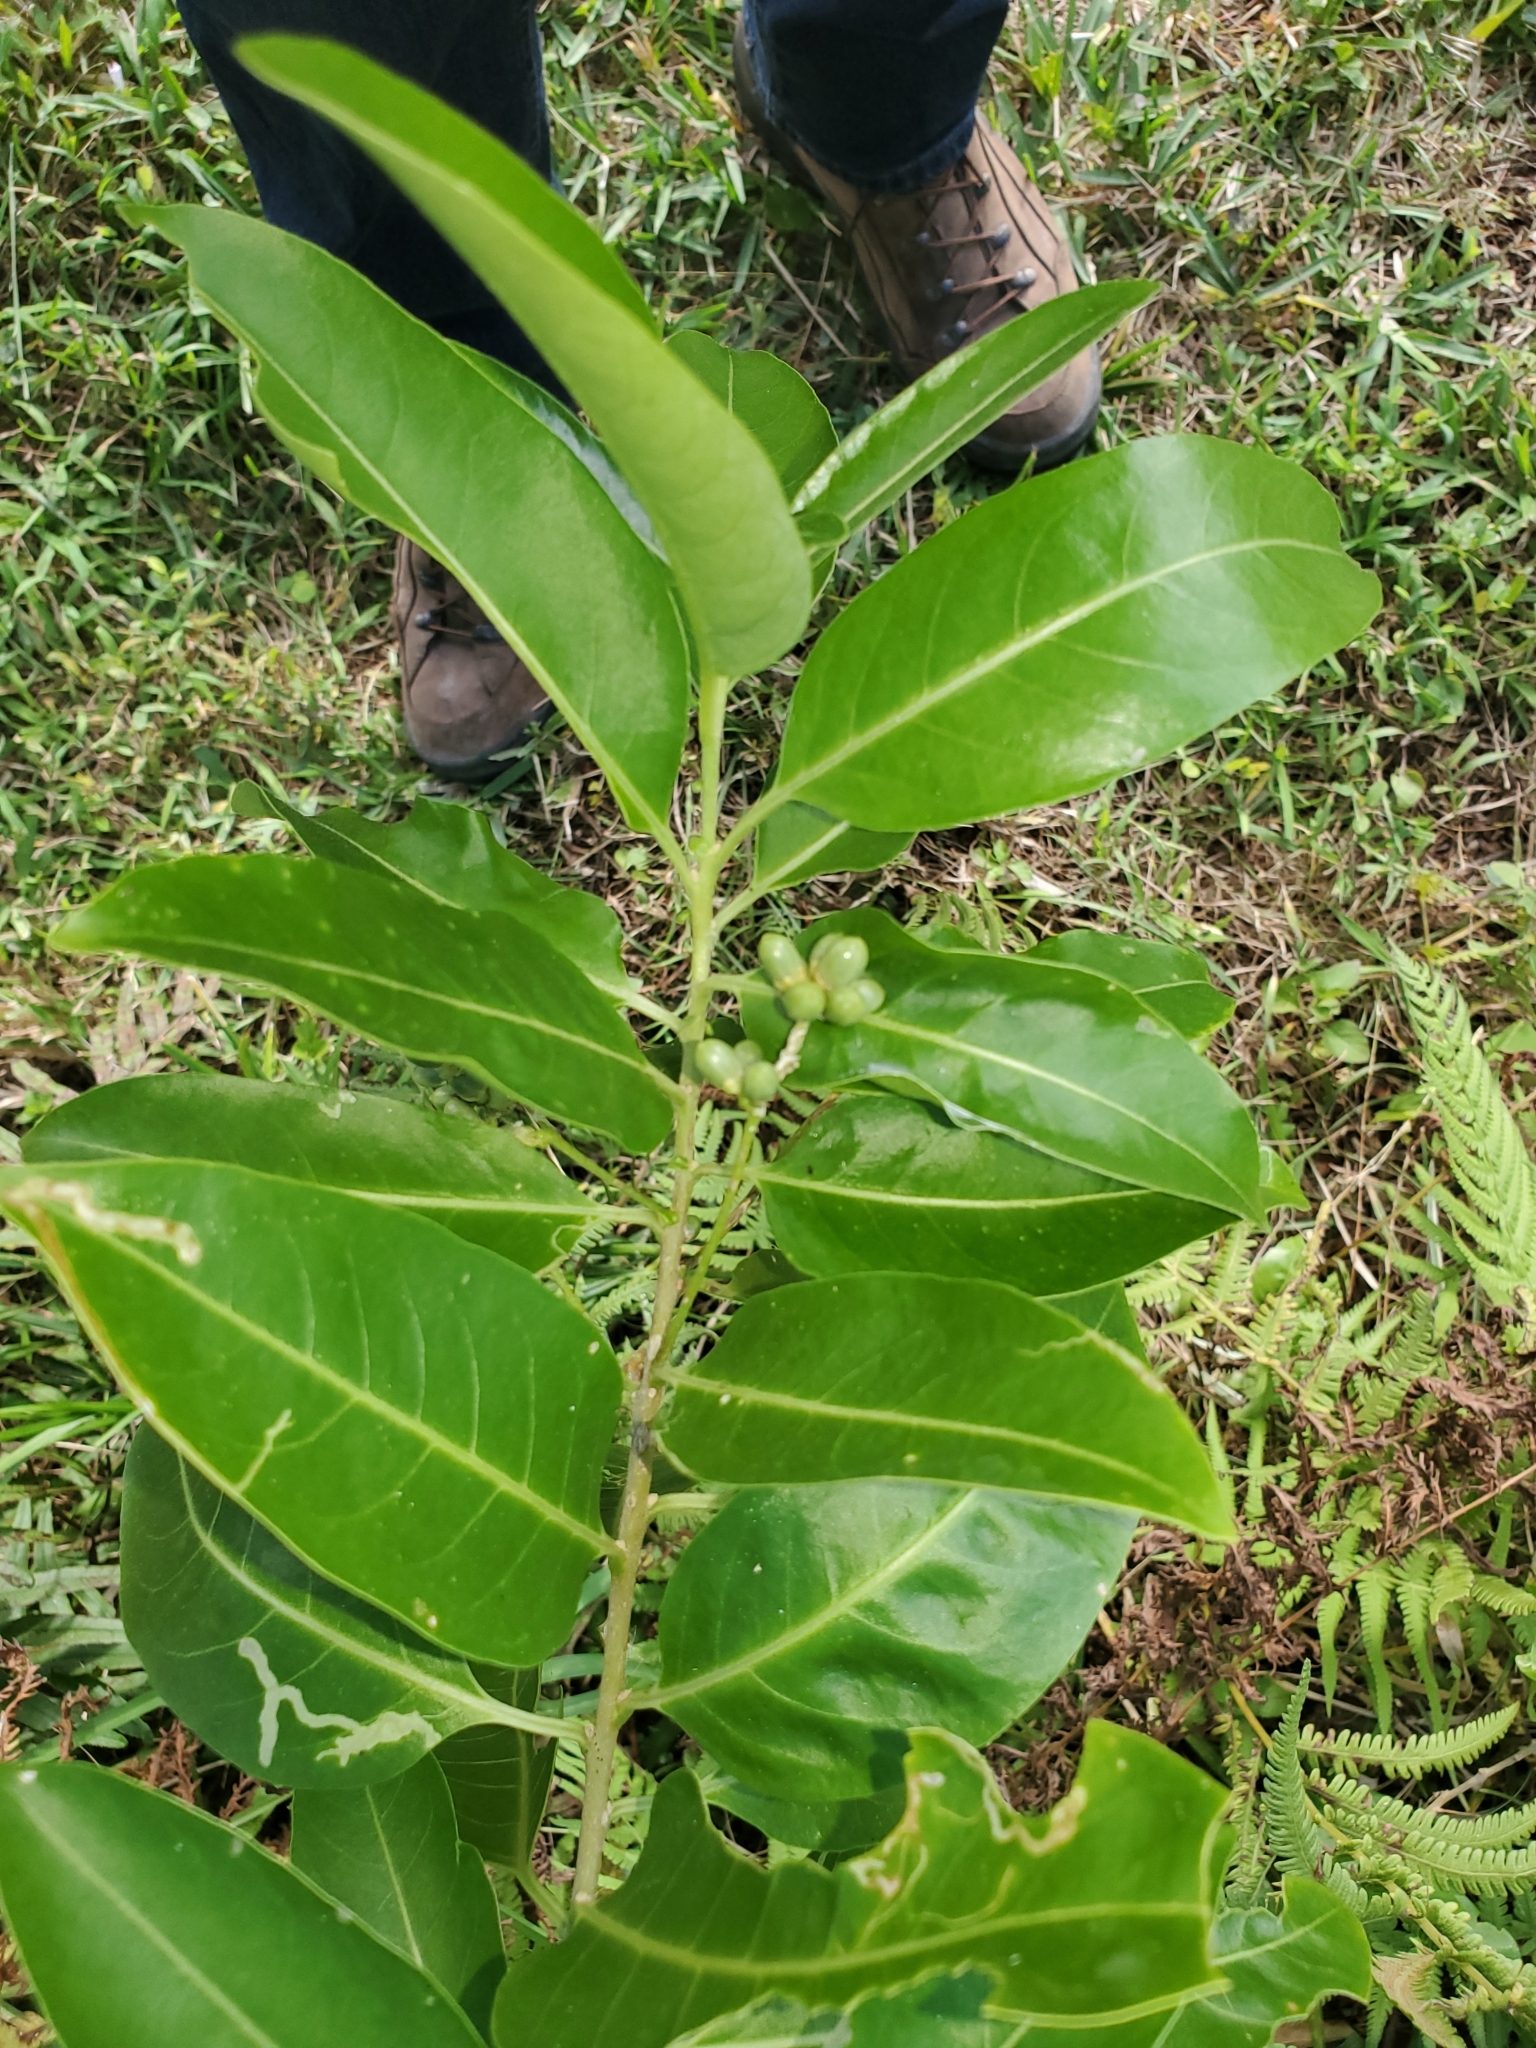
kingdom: Plantae
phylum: Tracheophyta
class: Magnoliopsida
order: Solanales
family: Solanaceae
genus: Cestrum
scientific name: Cestrum diurnum
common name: Day jessamine
